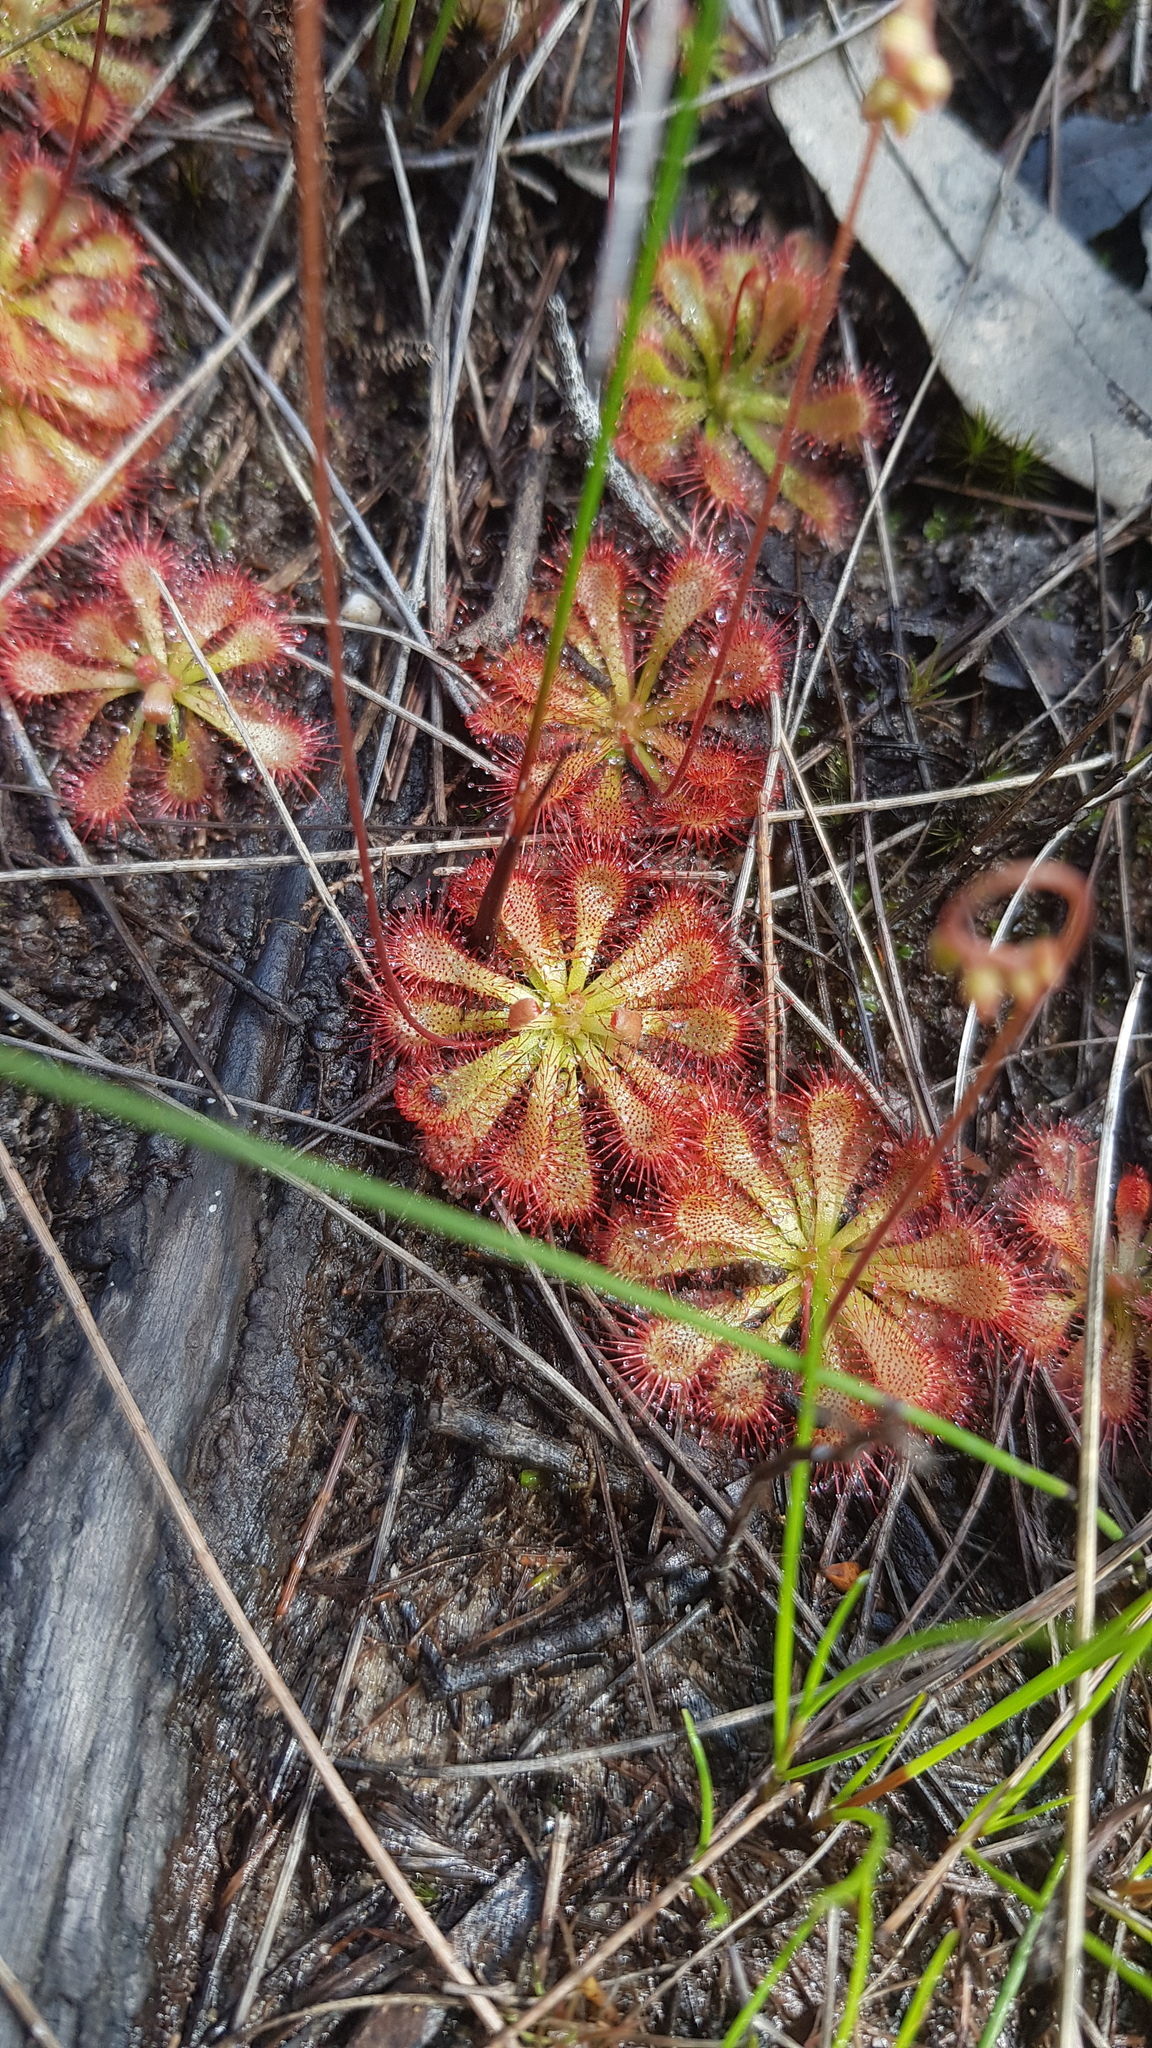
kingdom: Plantae
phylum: Tracheophyta
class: Magnoliopsida
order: Caryophyllales
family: Droseraceae
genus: Drosera
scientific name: Drosera spatulata
